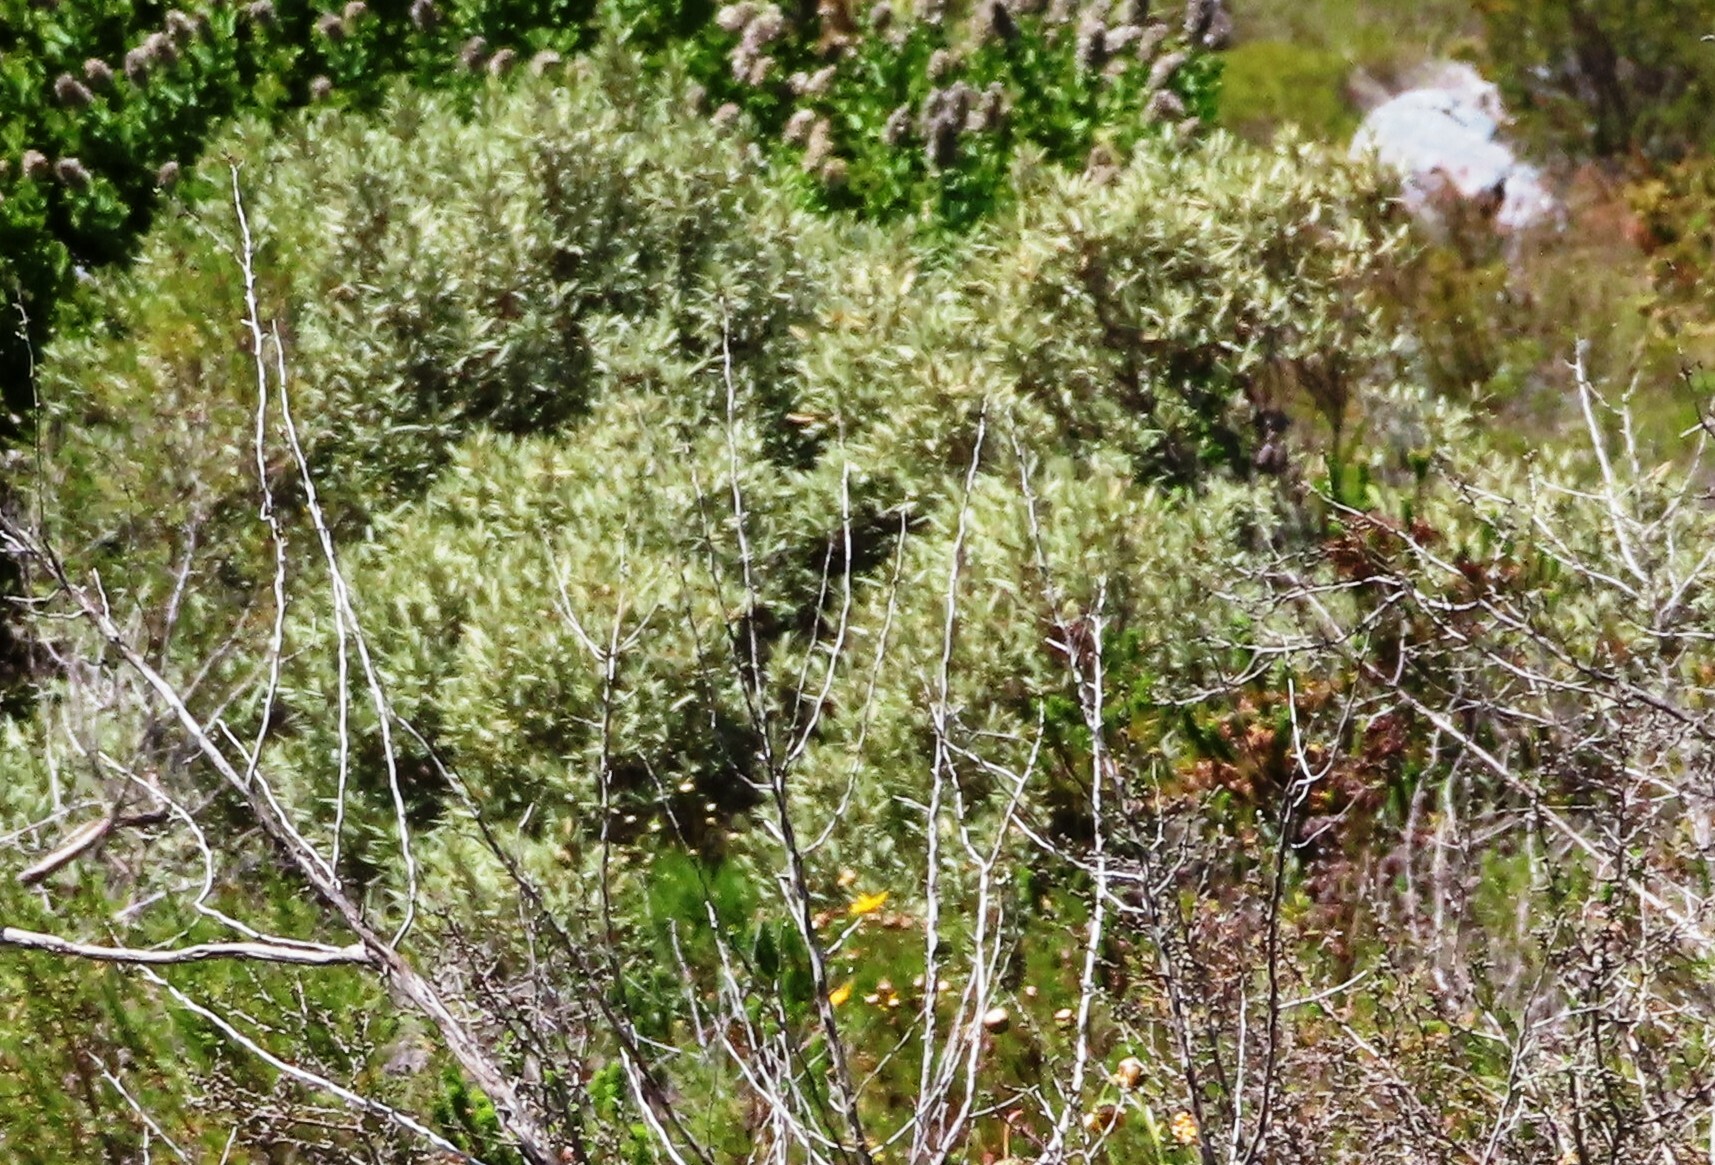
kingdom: Plantae
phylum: Tracheophyta
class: Magnoliopsida
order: Cornales
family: Grubbiaceae
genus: Grubbia
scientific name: Grubbia tomentosa
